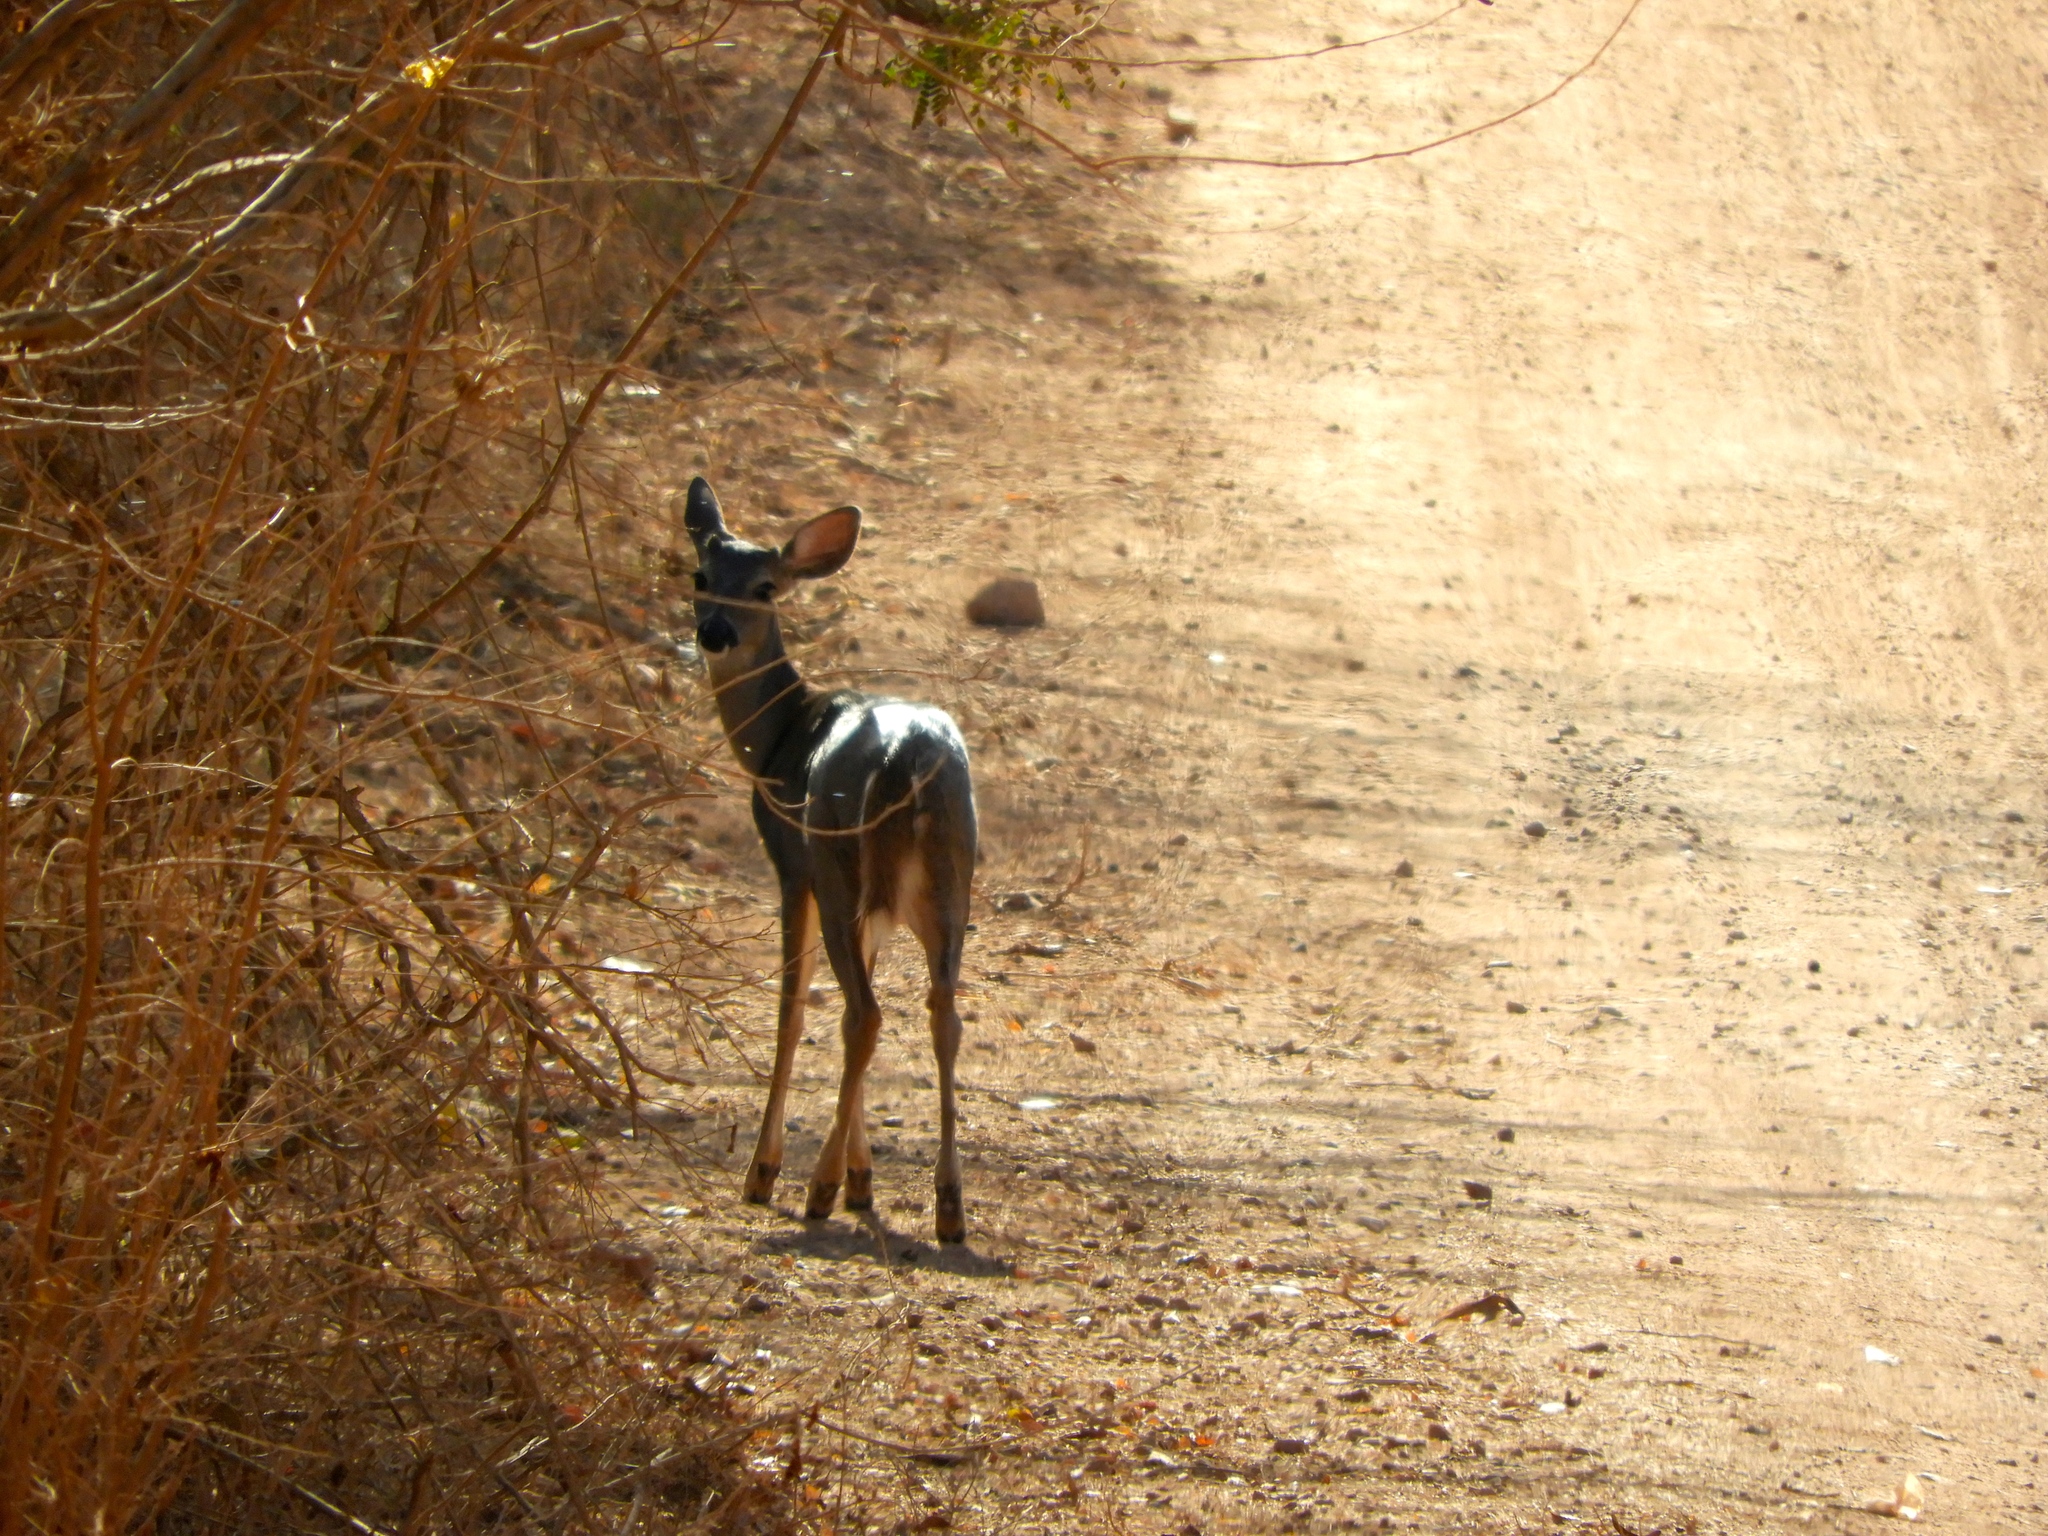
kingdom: Animalia
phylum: Chordata
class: Mammalia
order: Artiodactyla
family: Cervidae
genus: Odocoileus
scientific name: Odocoileus virginianus
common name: White-tailed deer
